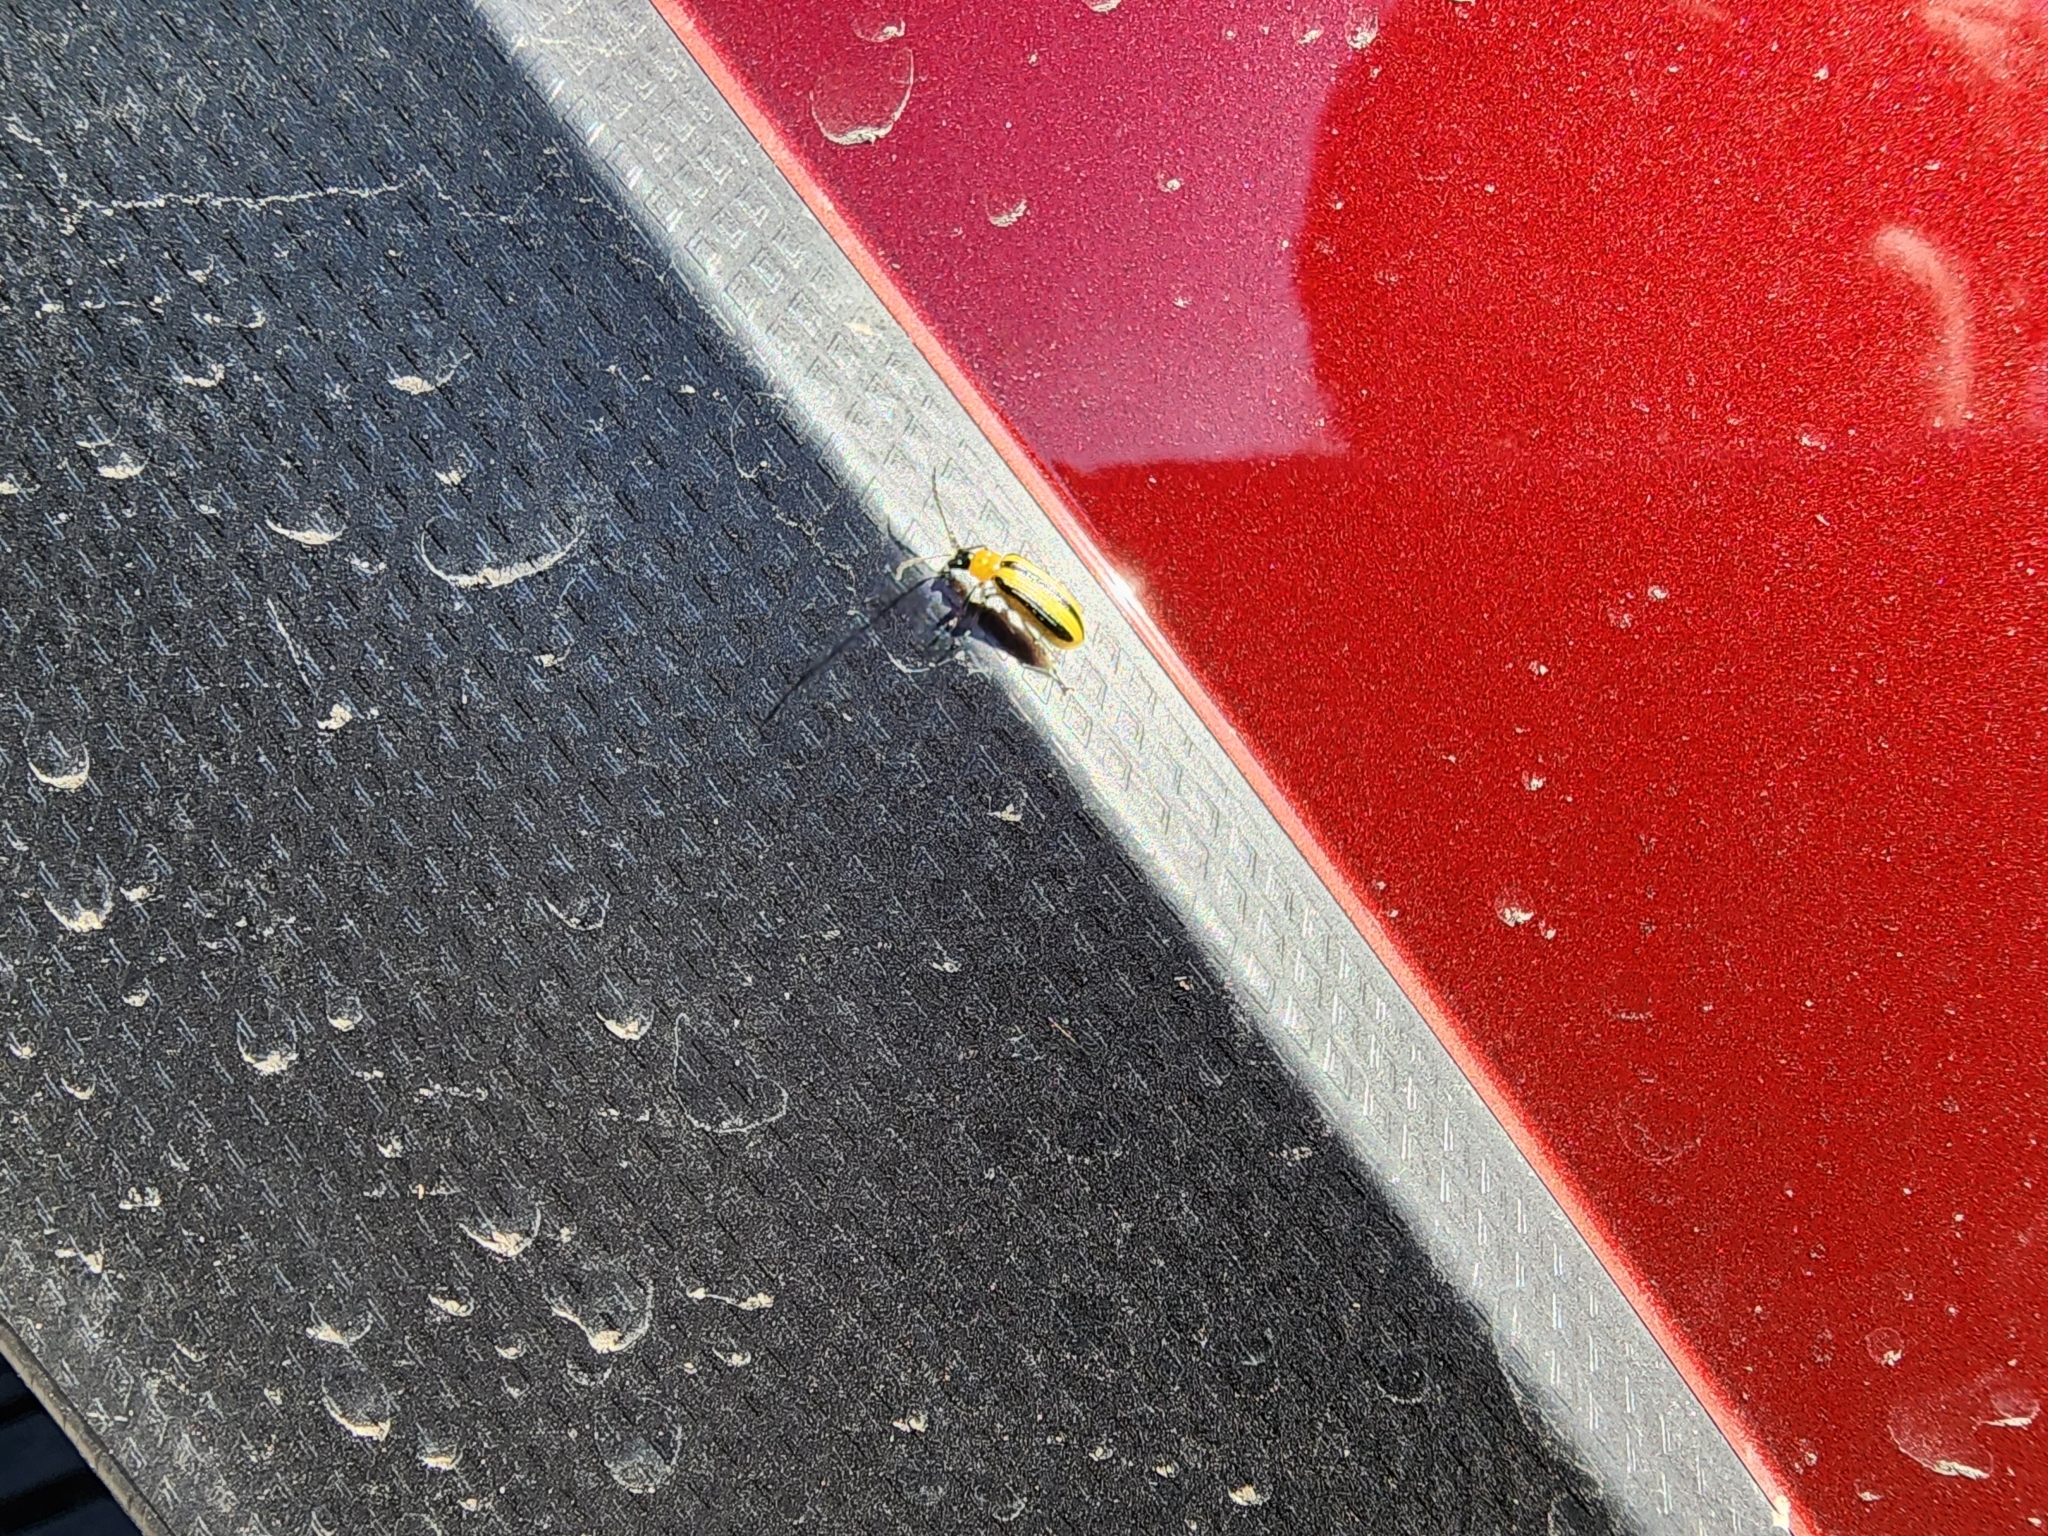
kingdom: Animalia
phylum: Arthropoda
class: Insecta
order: Coleoptera
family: Chrysomelidae
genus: Acalymma
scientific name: Acalymma vittatum
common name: Striped cucumber beetle
